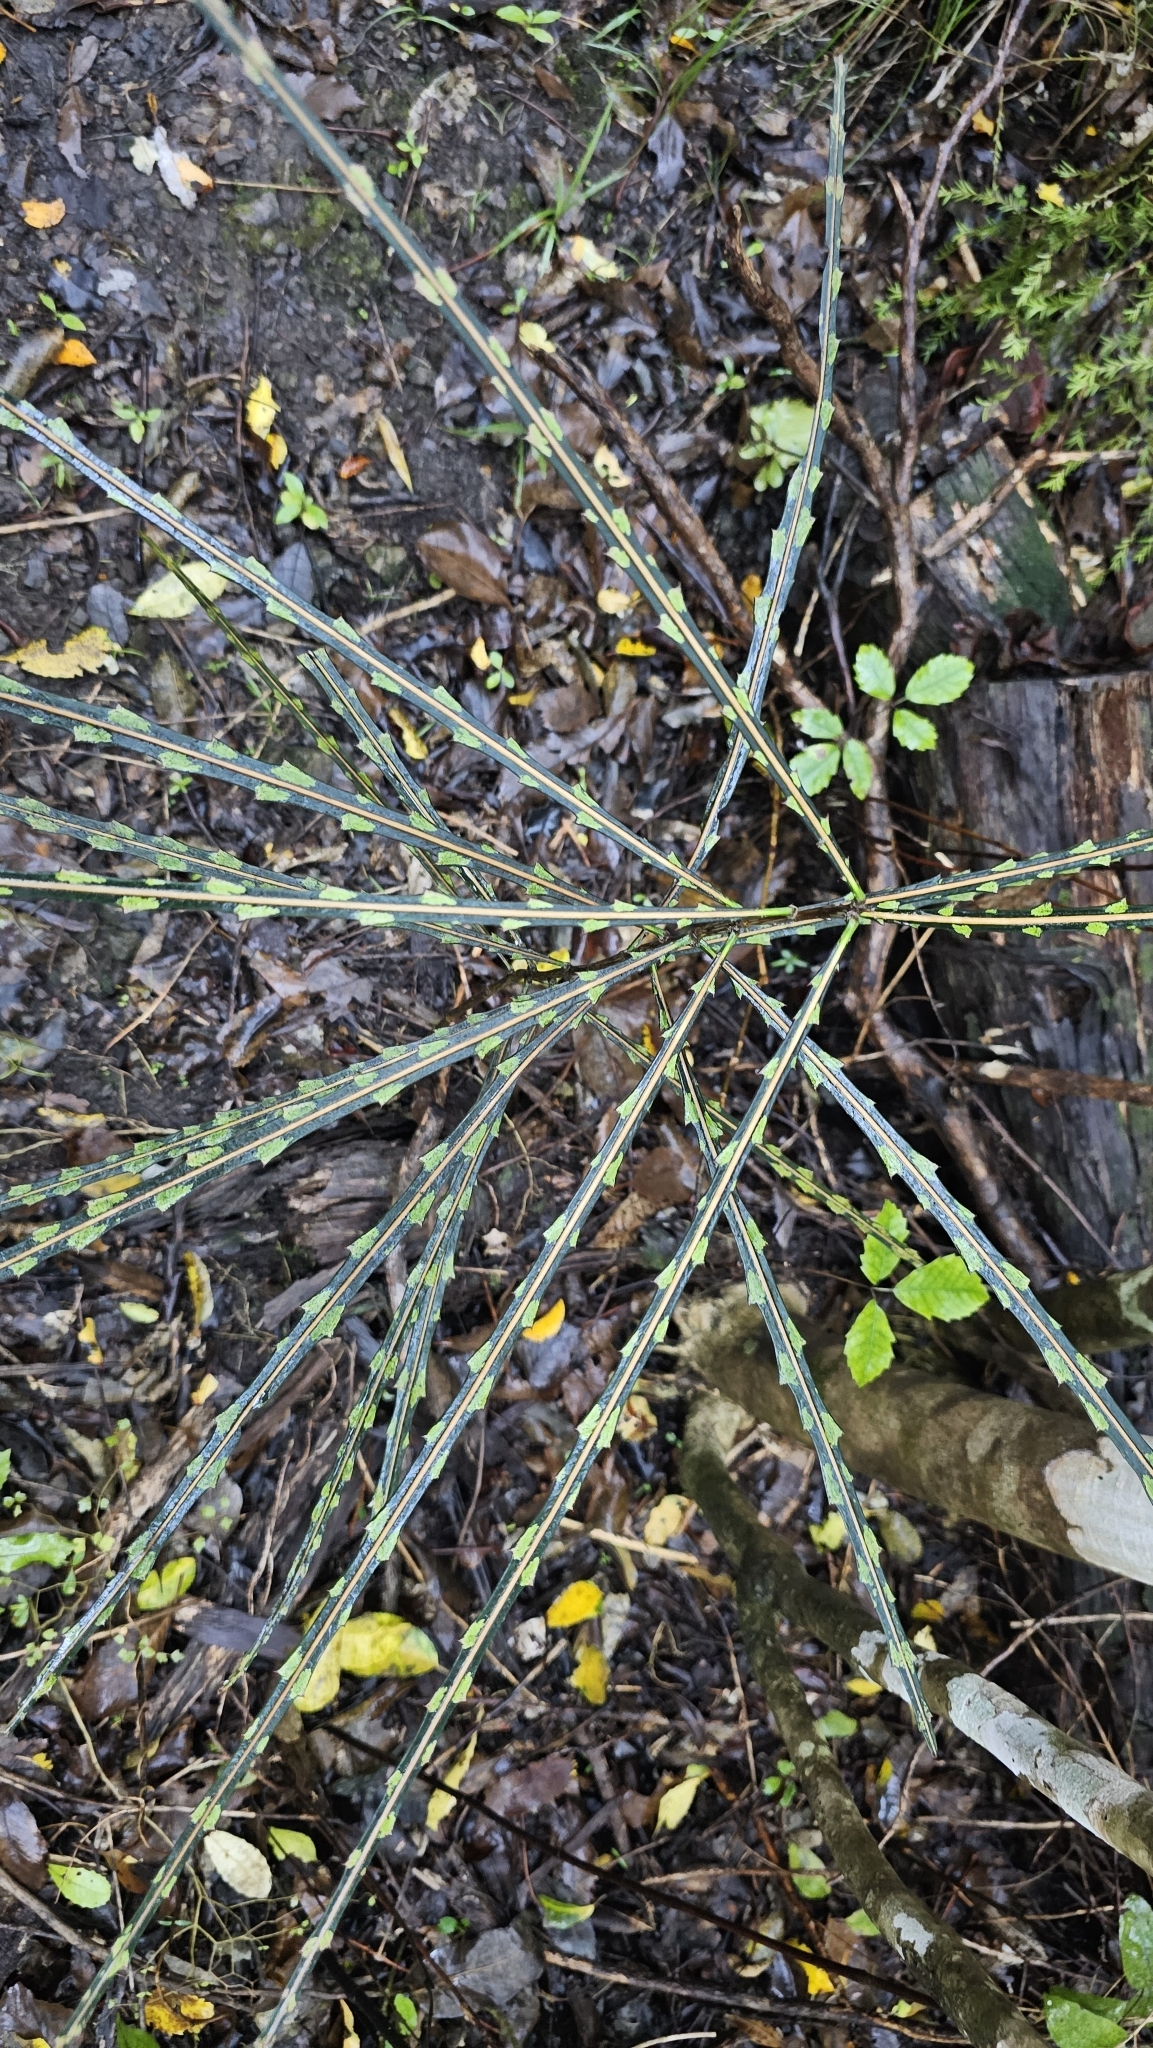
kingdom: Plantae
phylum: Tracheophyta
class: Magnoliopsida
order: Apiales
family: Araliaceae
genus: Pseudopanax
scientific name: Pseudopanax crassifolius
